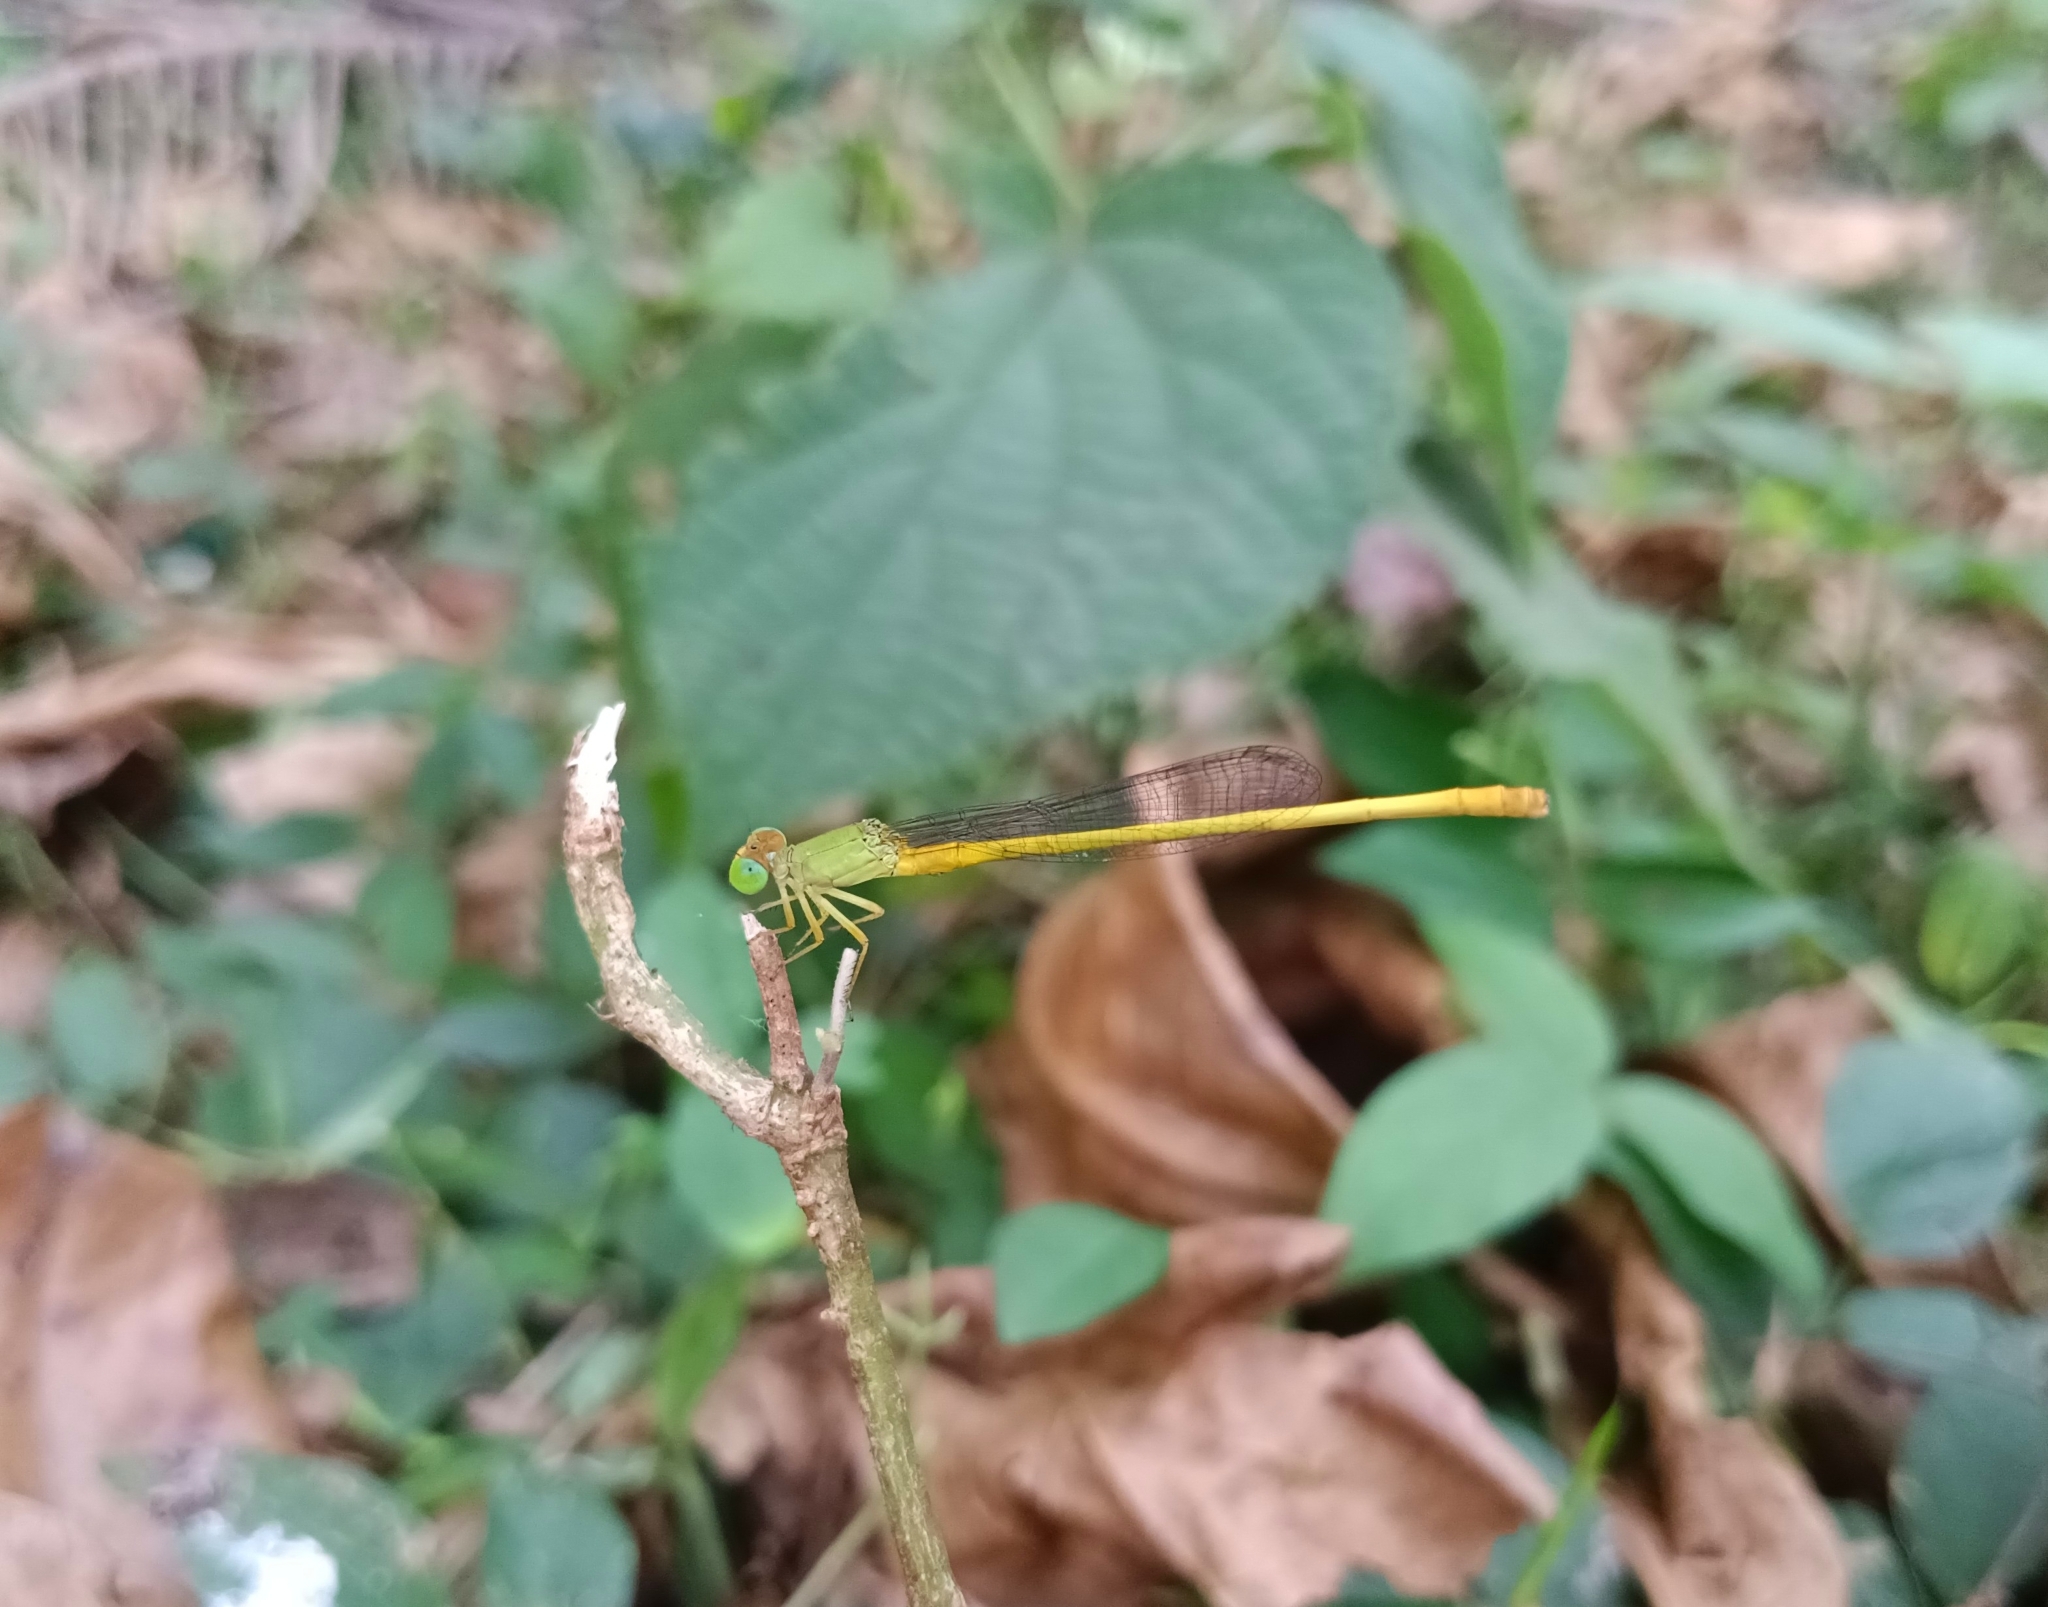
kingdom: Animalia
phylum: Arthropoda
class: Insecta
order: Odonata
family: Coenagrionidae
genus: Ceriagrion
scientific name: Ceriagrion coromandelianum
